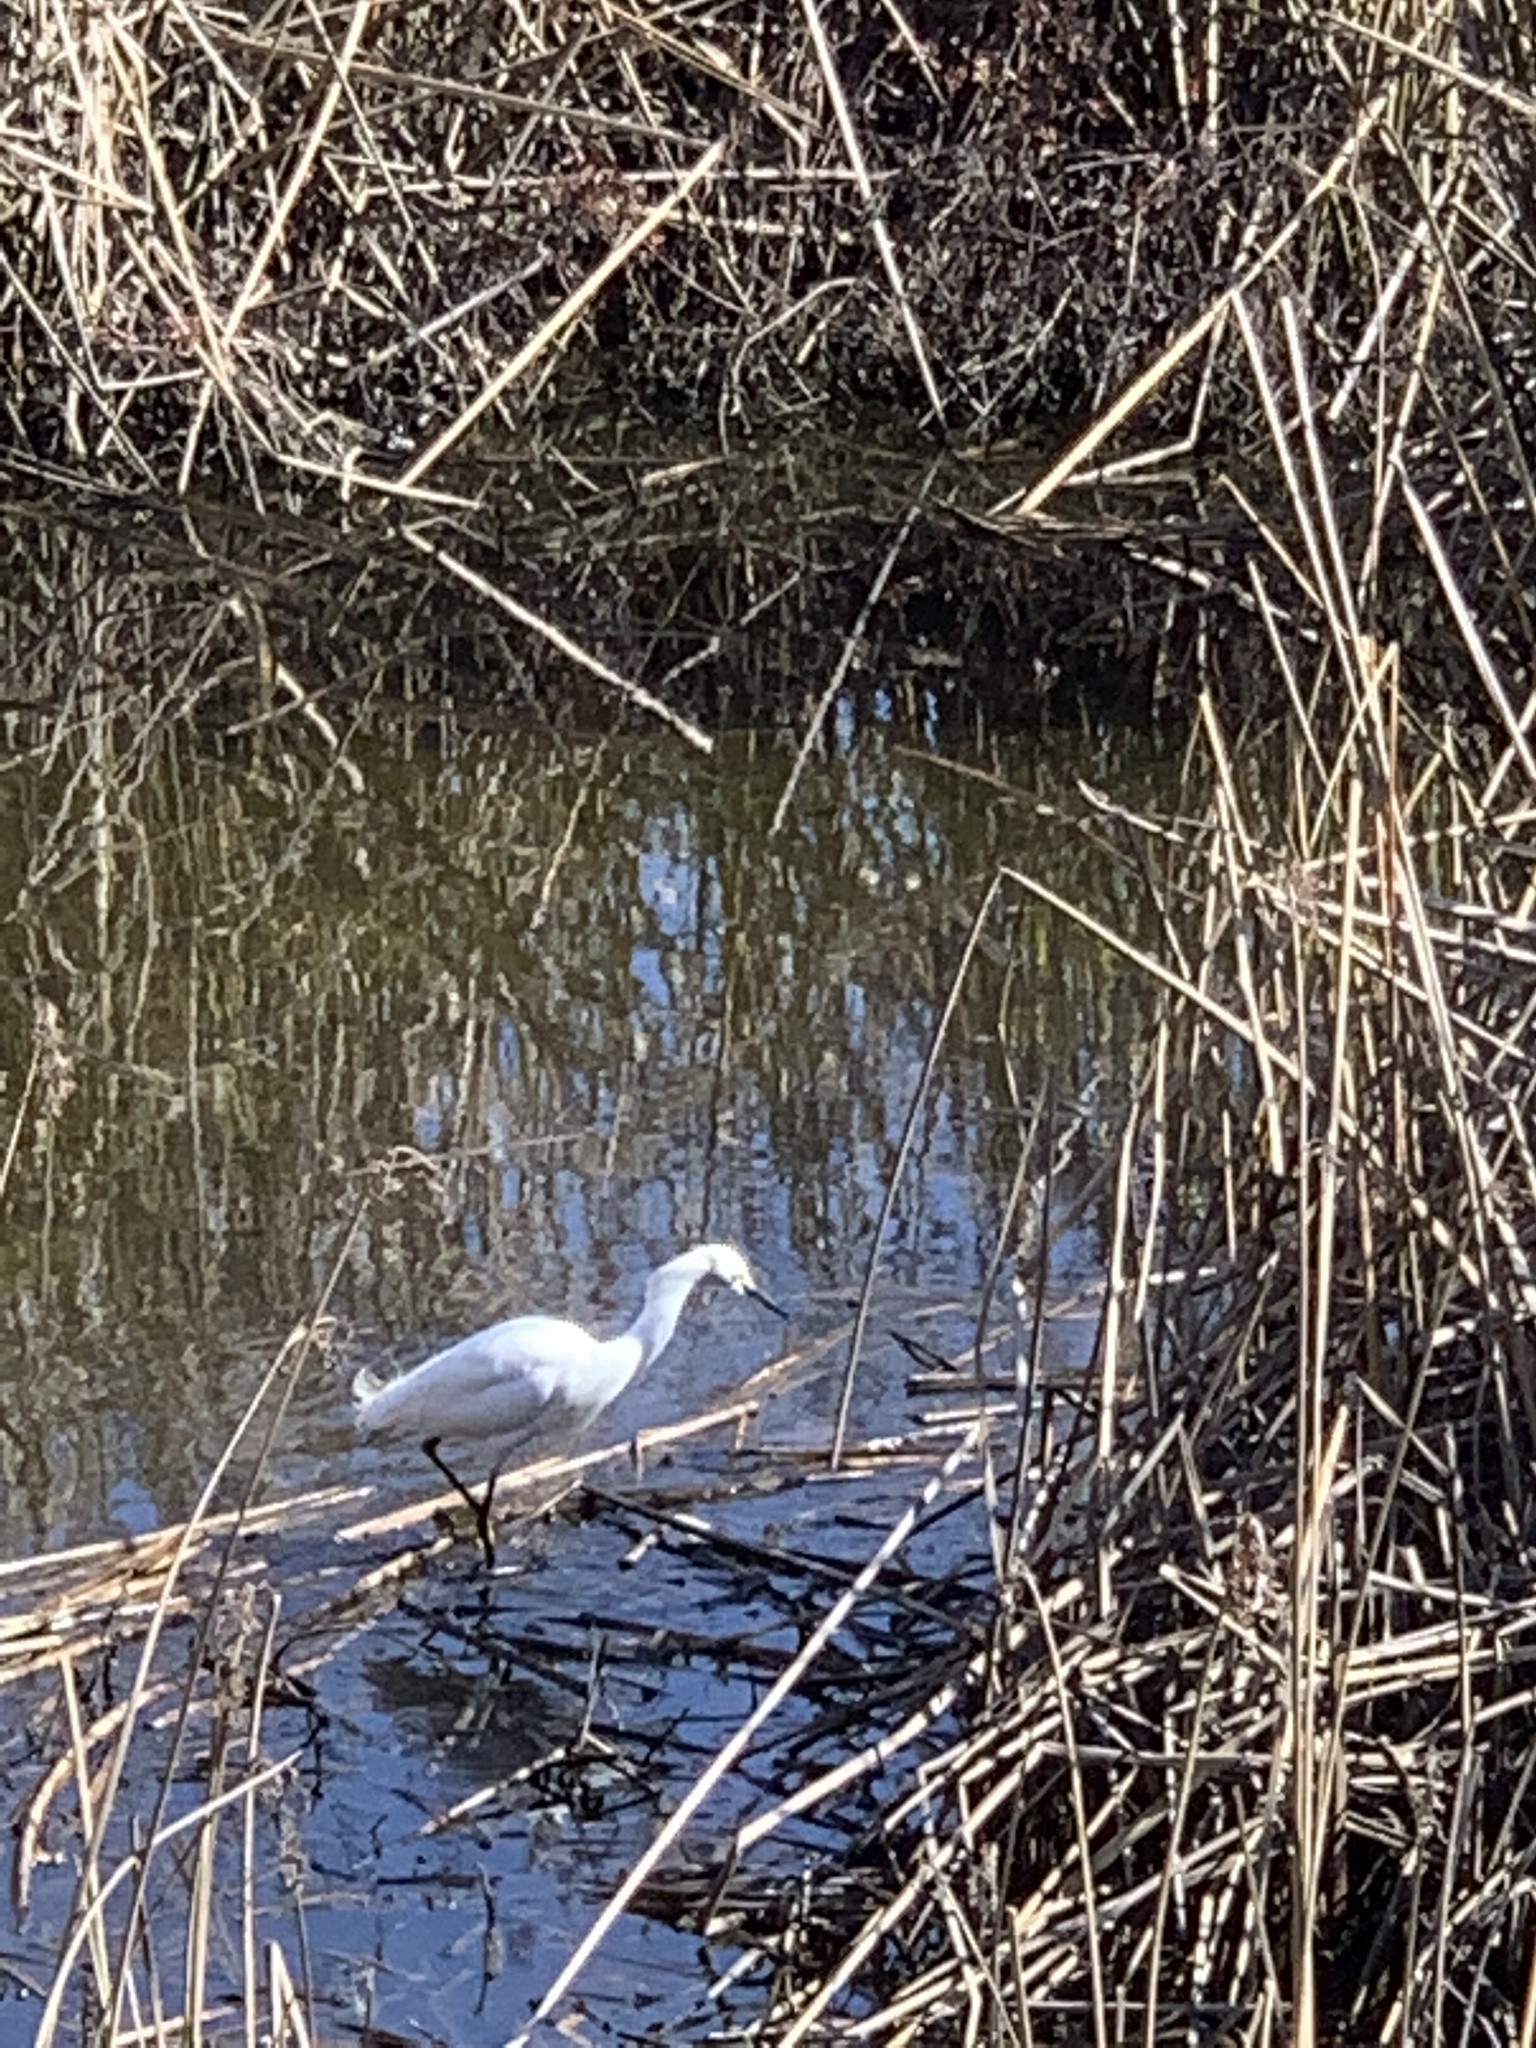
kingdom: Animalia
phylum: Chordata
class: Aves
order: Pelecaniformes
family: Ardeidae
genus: Egretta
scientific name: Egretta thula
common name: Snowy egret
